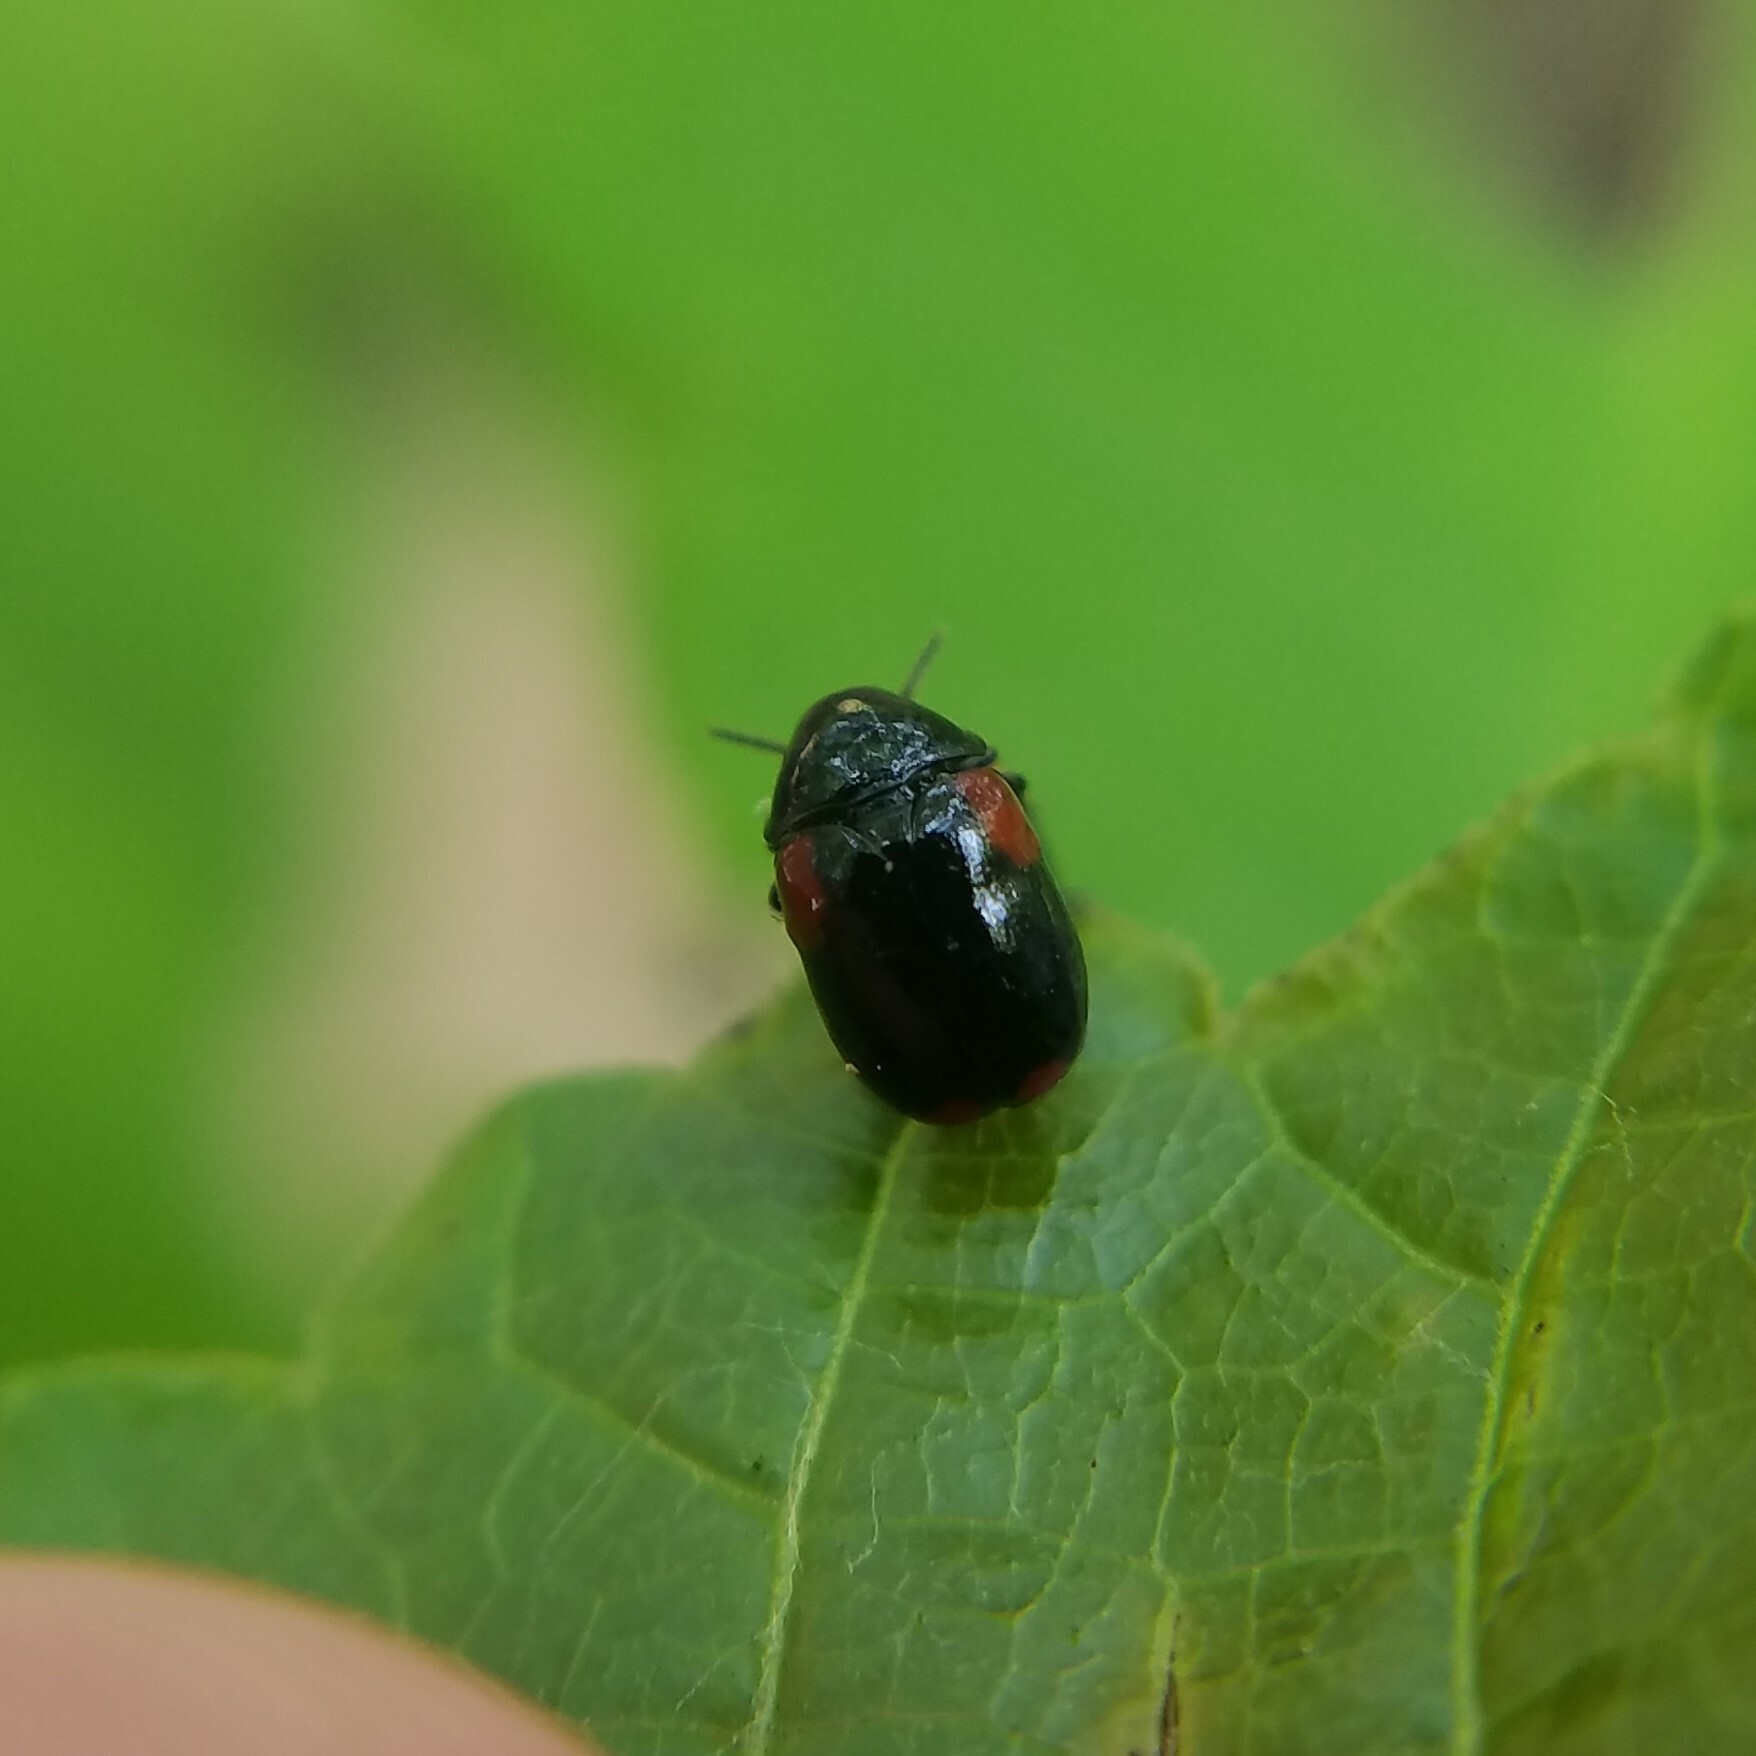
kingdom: Animalia
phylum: Arthropoda
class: Insecta
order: Coleoptera
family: Chrysomelidae
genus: Babia
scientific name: Babia quadriguttata
